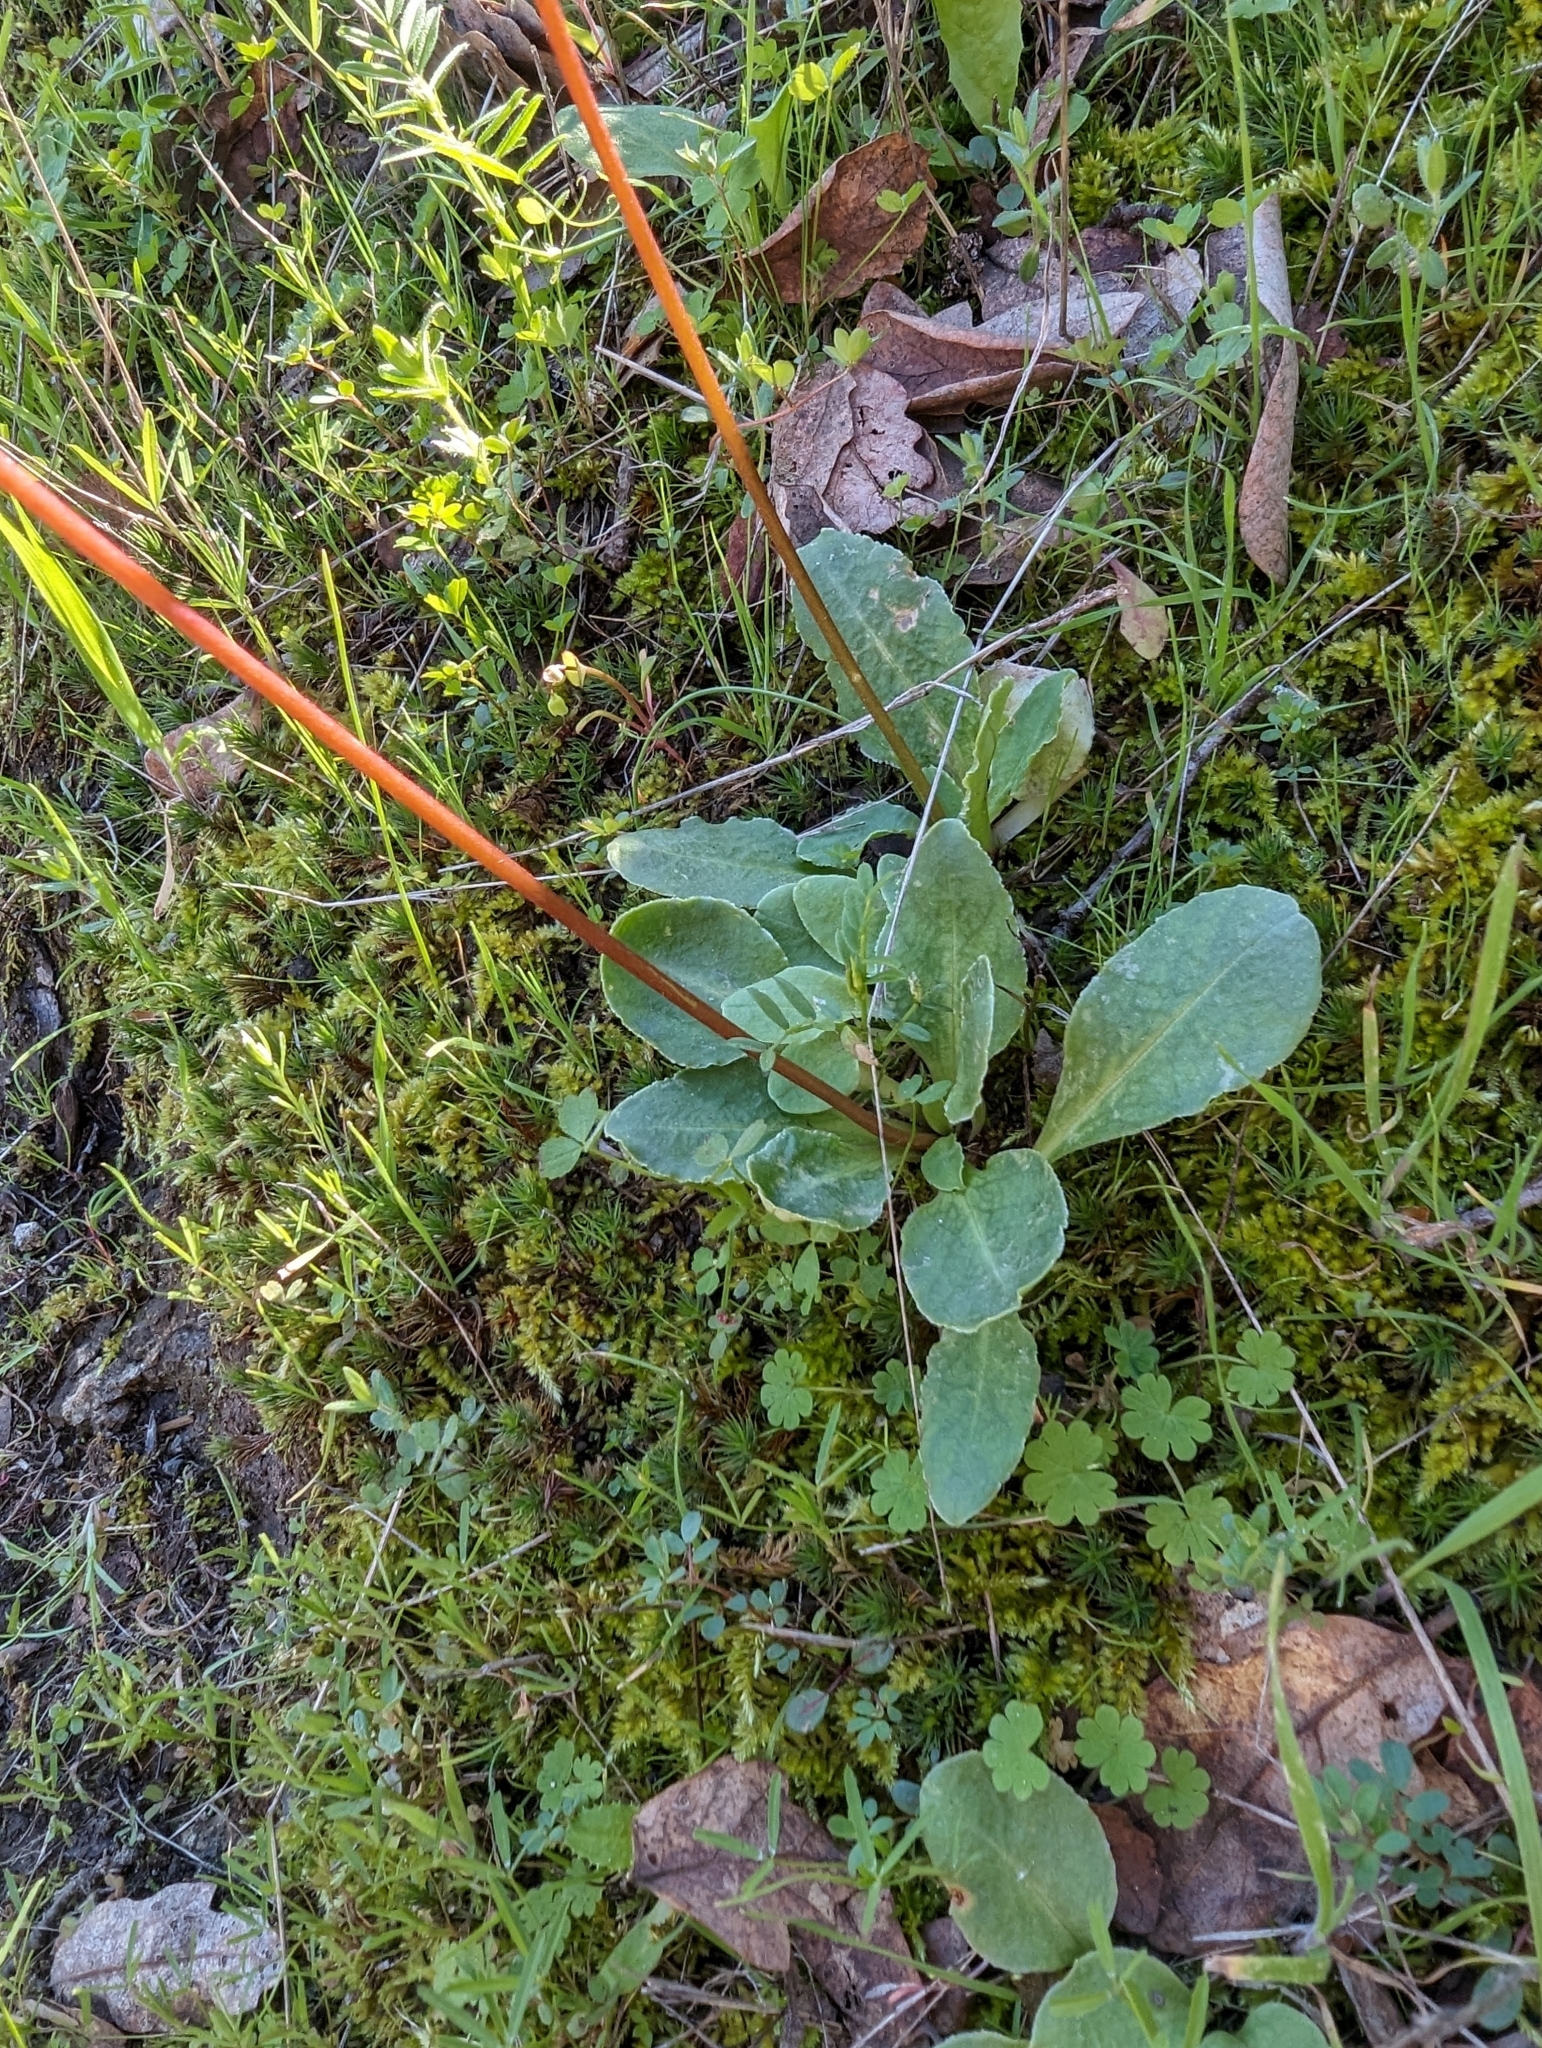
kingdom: Plantae
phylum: Tracheophyta
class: Magnoliopsida
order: Ericales
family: Primulaceae
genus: Dodecatheon
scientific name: Dodecatheon hendersonii
